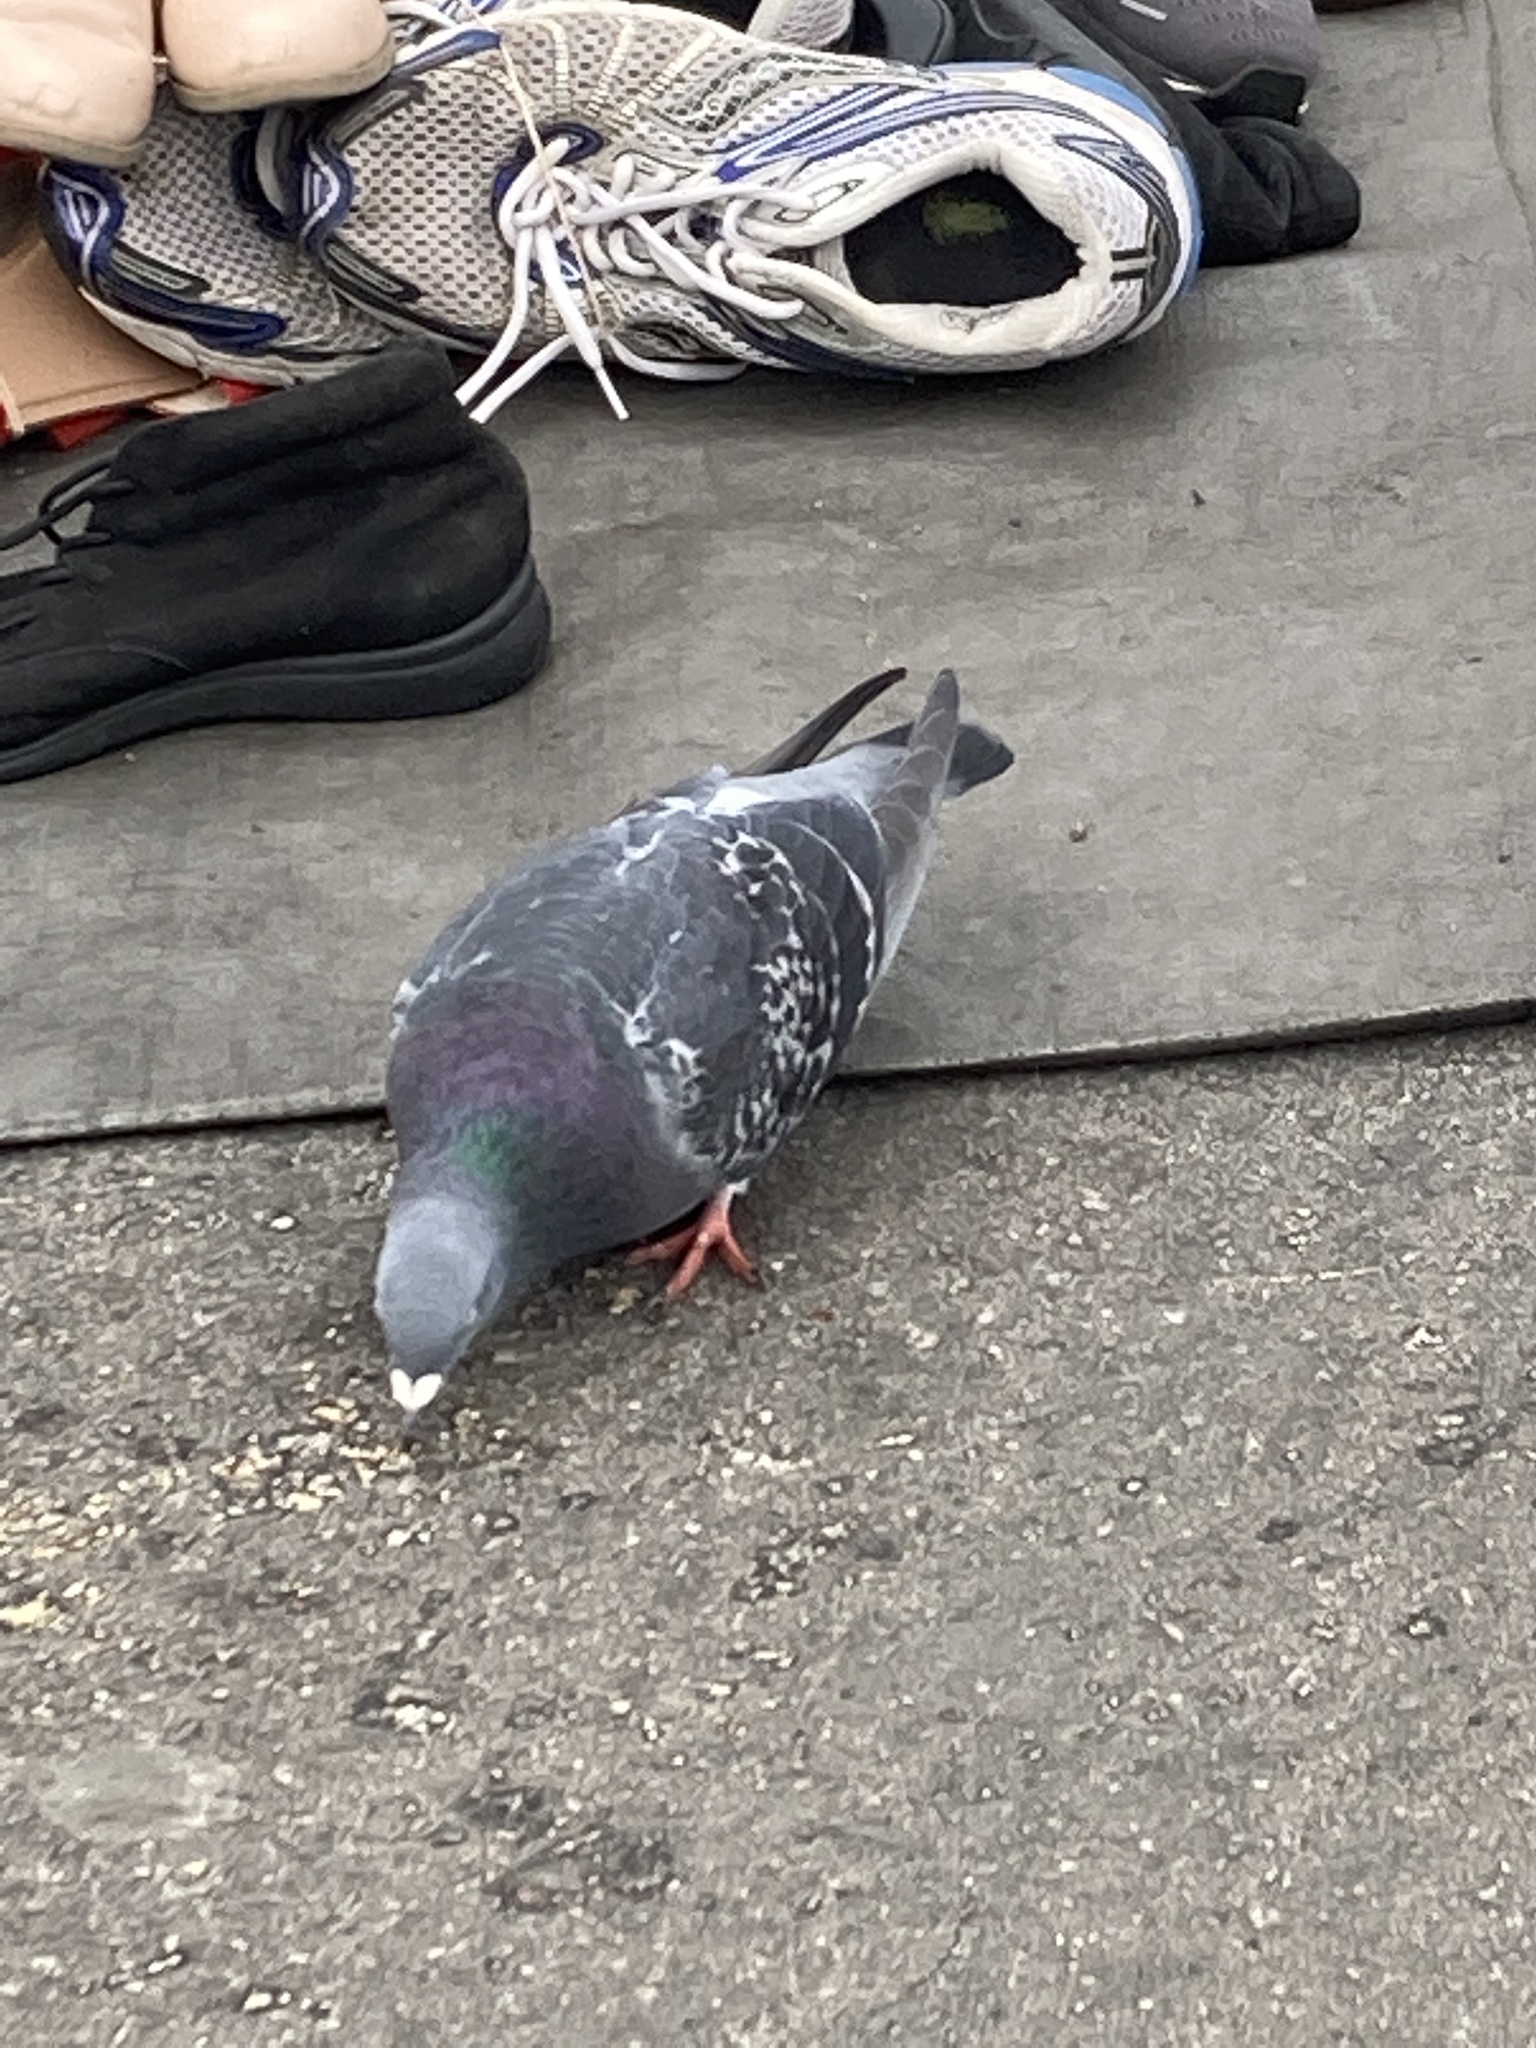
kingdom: Animalia
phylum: Chordata
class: Aves
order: Columbiformes
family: Columbidae
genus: Columba
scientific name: Columba livia
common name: Rock pigeon
